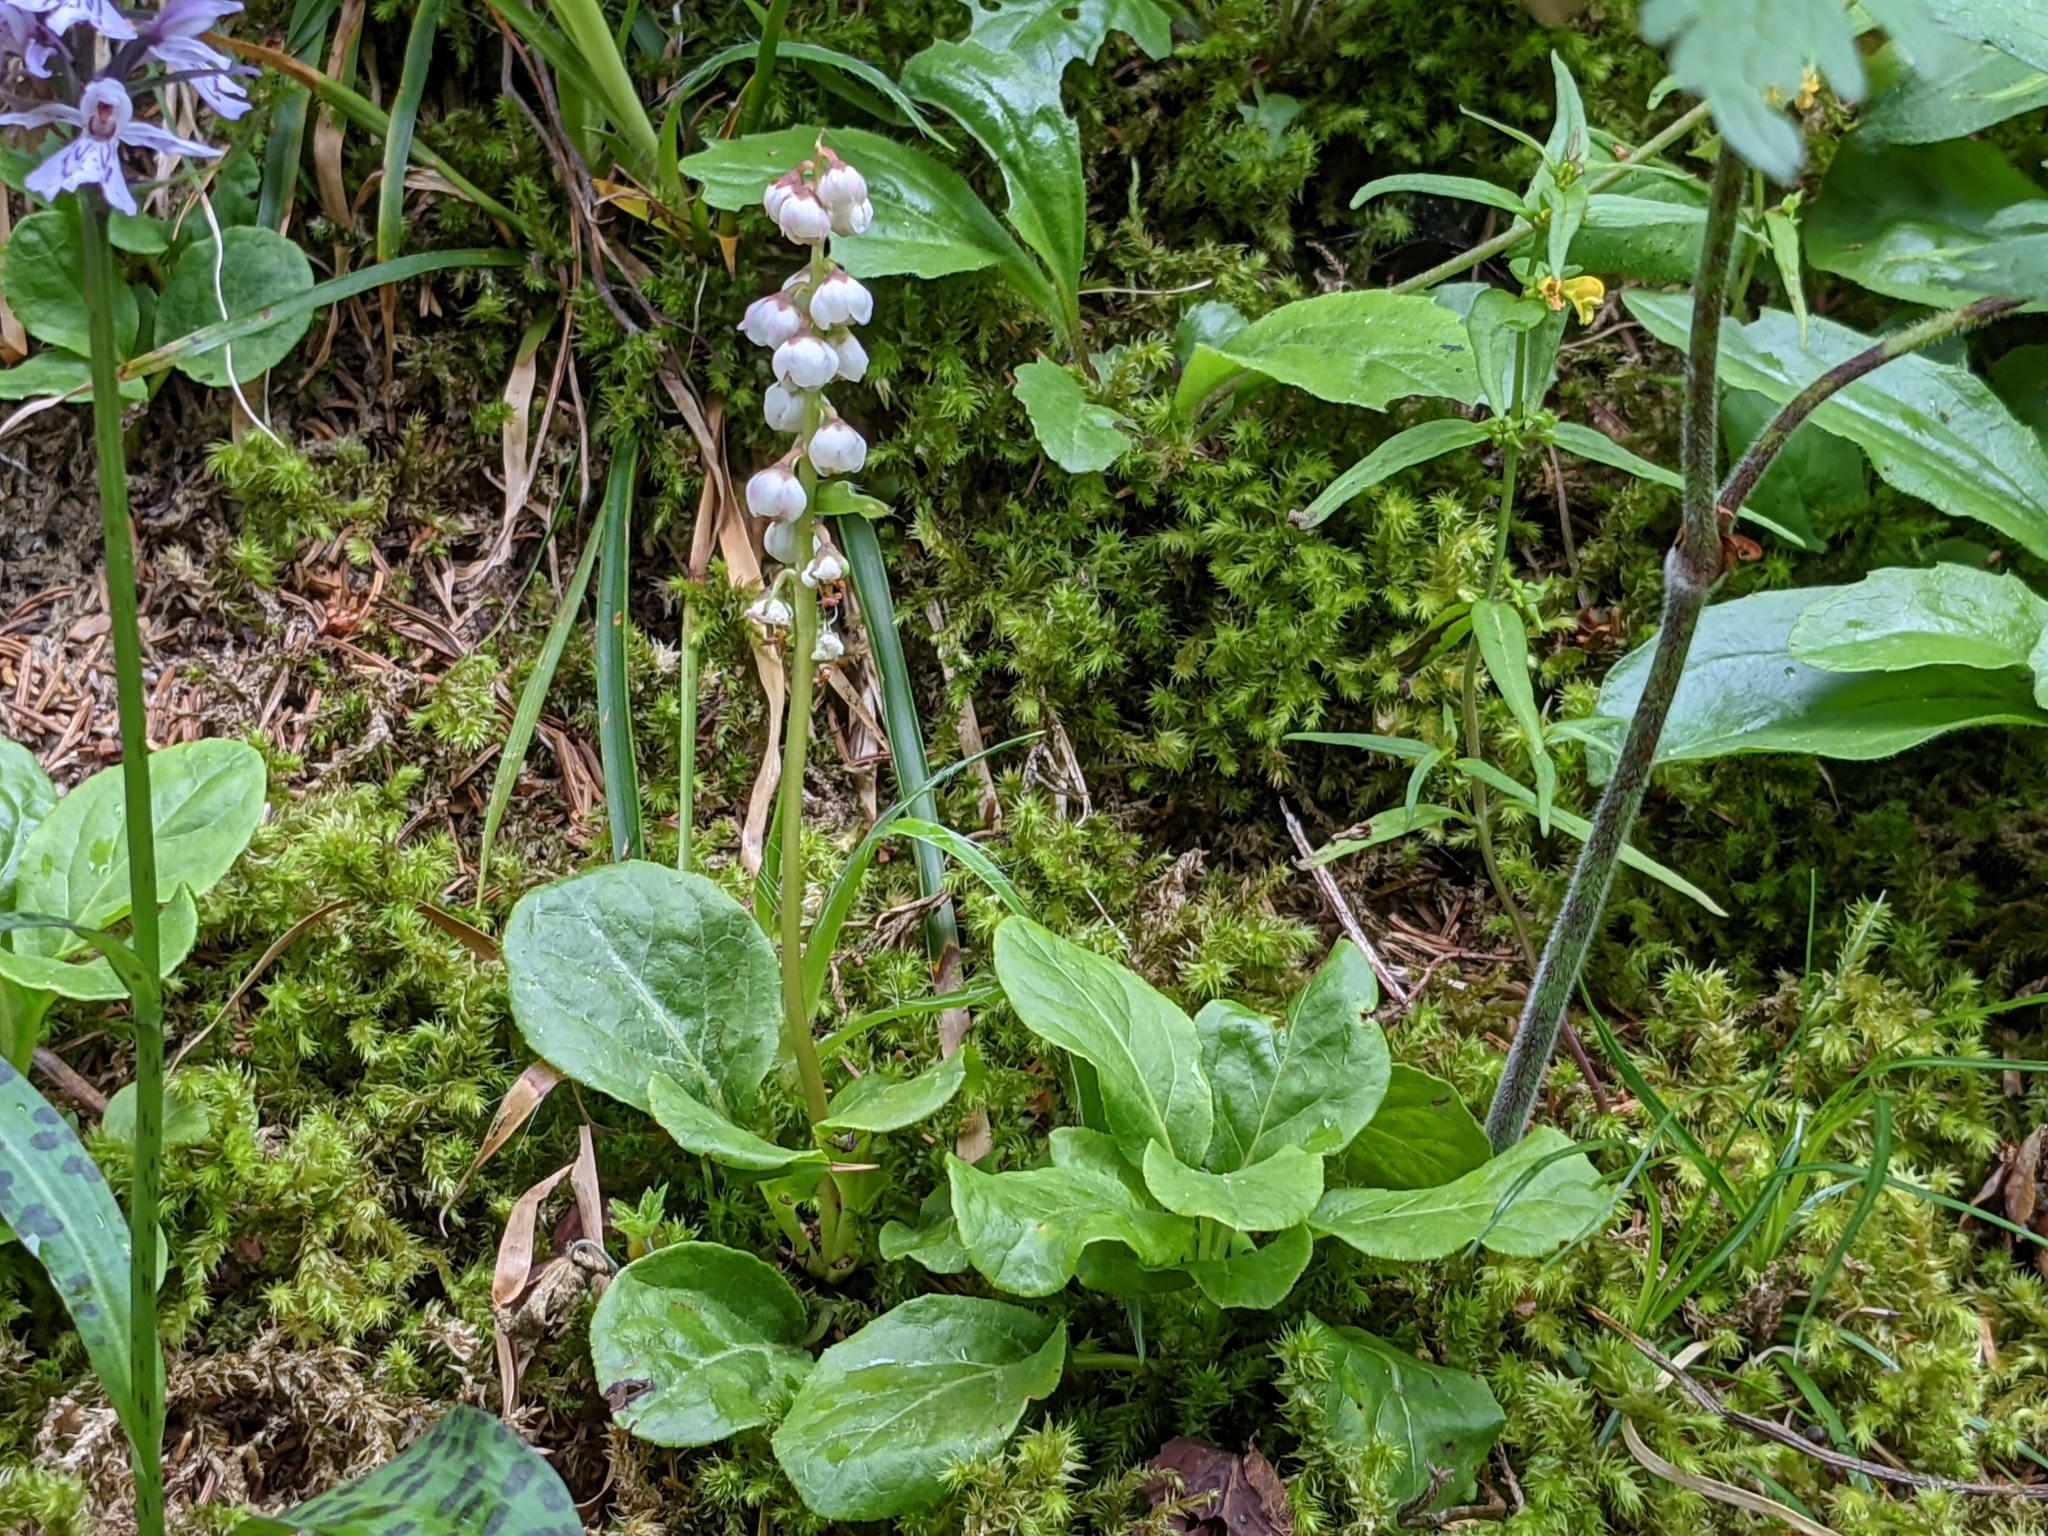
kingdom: Plantae
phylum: Tracheophyta
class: Magnoliopsida
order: Ericales
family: Ericaceae
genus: Pyrola
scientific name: Pyrola minor
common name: Common wintergreen
